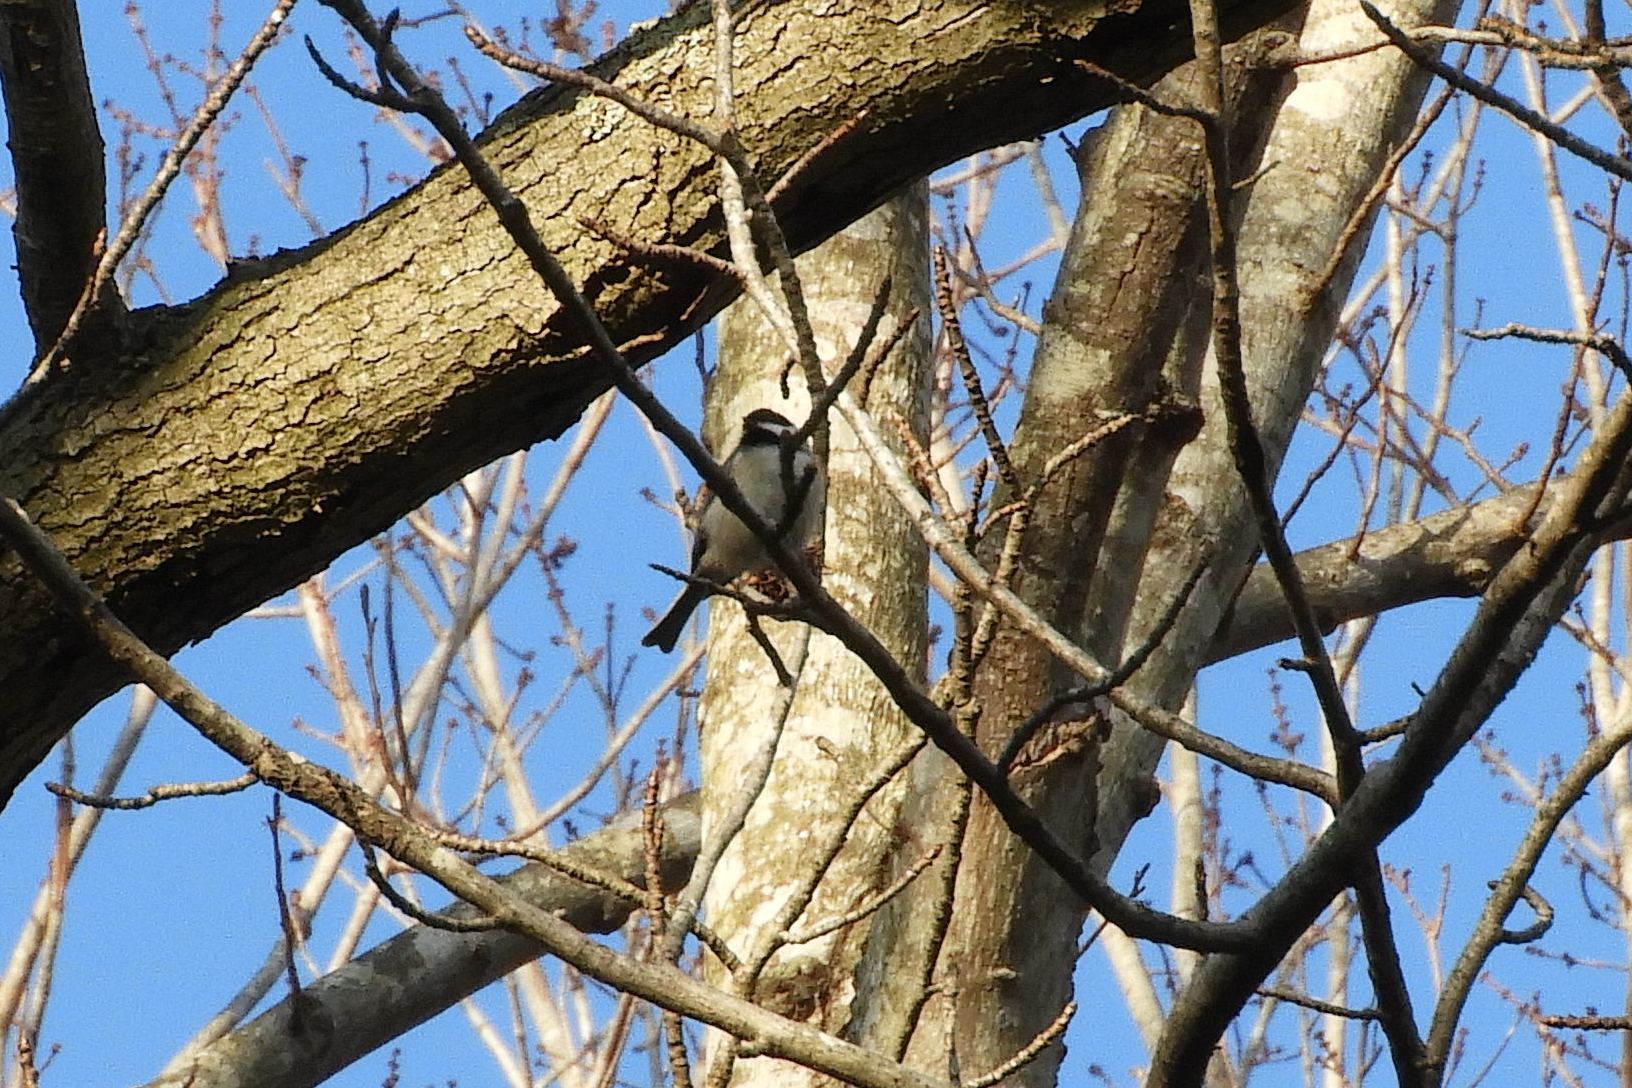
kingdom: Animalia
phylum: Chordata
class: Aves
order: Passeriformes
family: Paridae
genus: Poecile
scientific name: Poecile carolinensis
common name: Carolina chickadee
